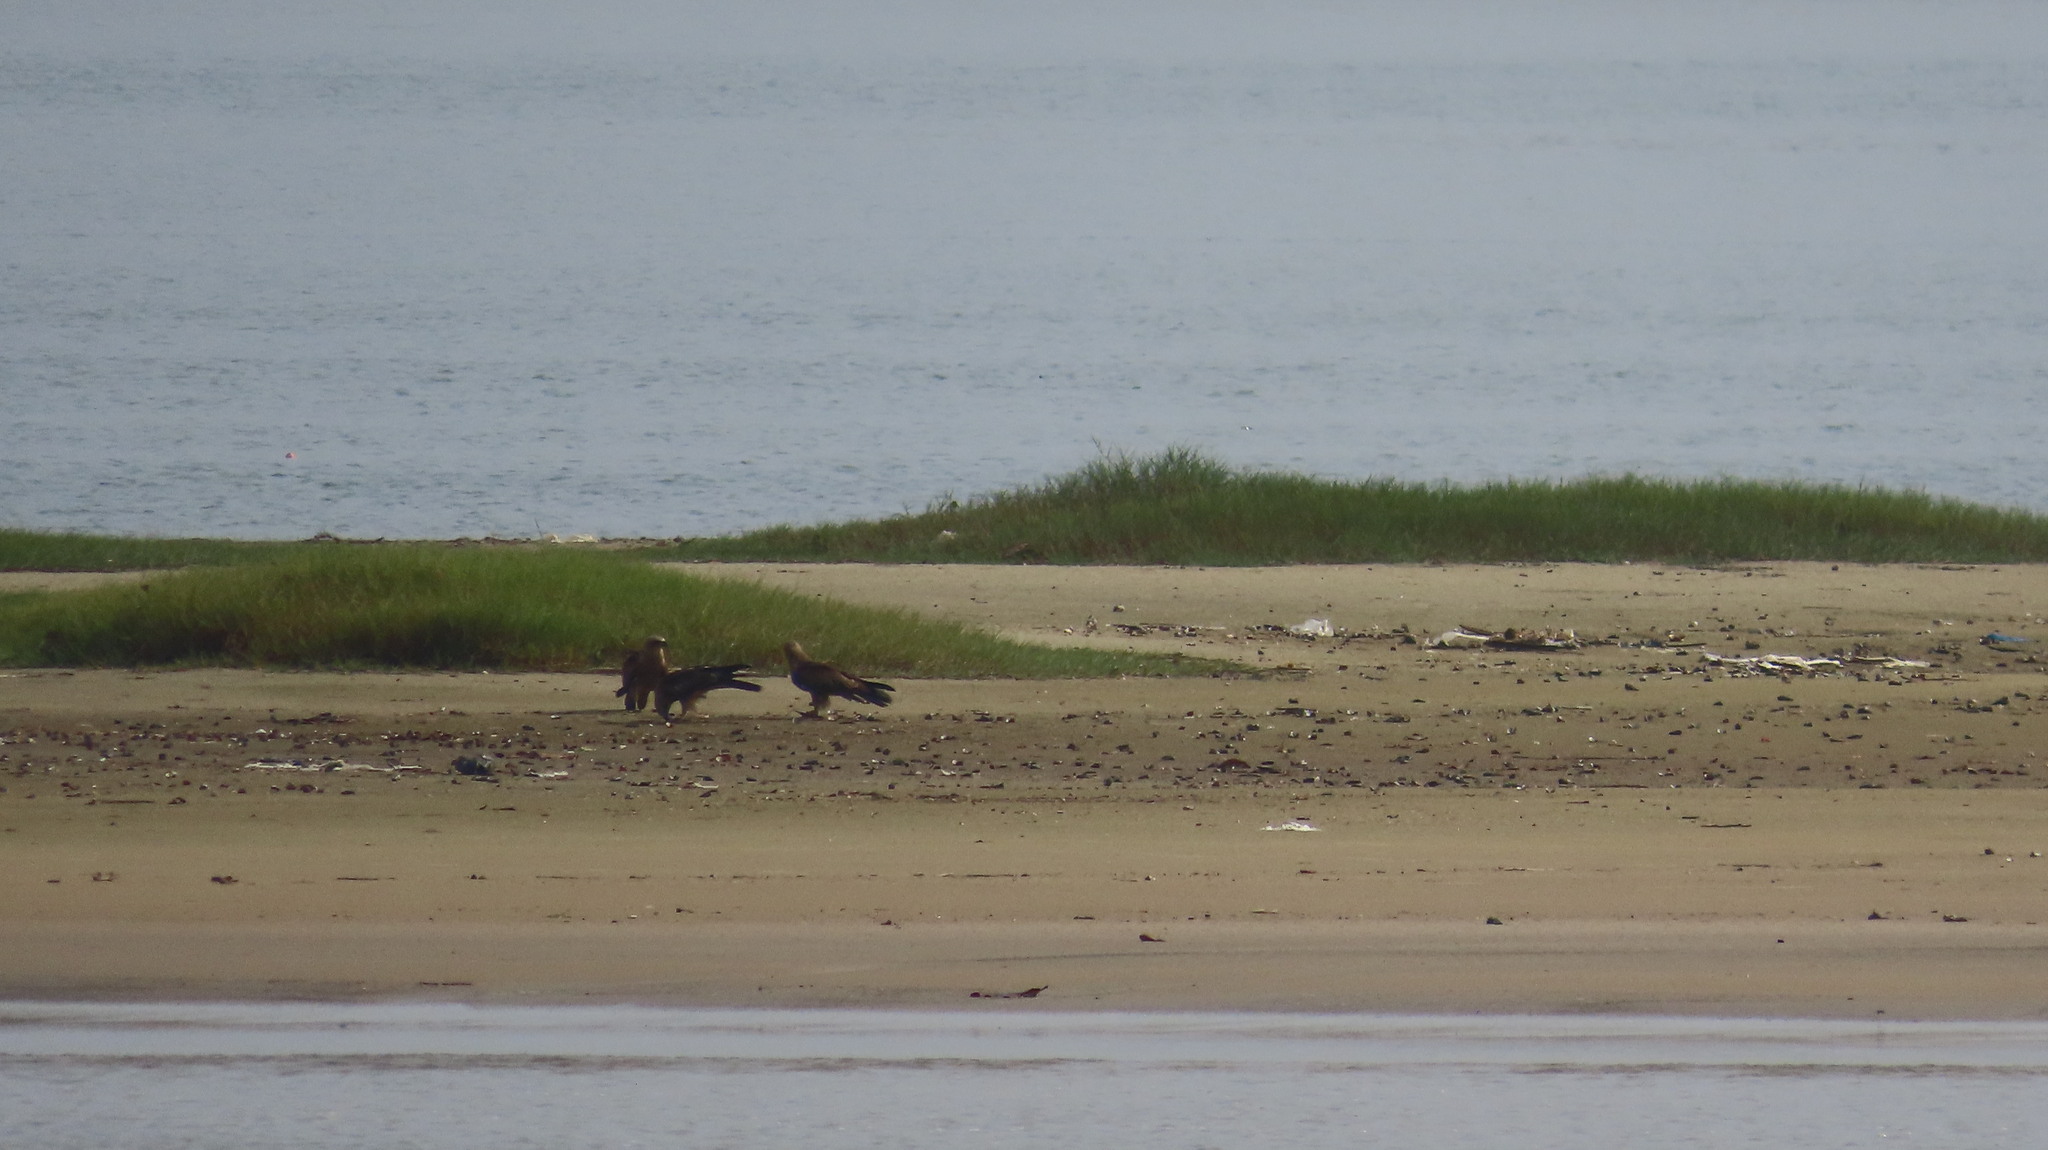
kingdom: Animalia
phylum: Chordata
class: Aves
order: Accipitriformes
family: Accipitridae
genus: Haliastur
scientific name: Haliastur indus
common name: Brahminy kite
